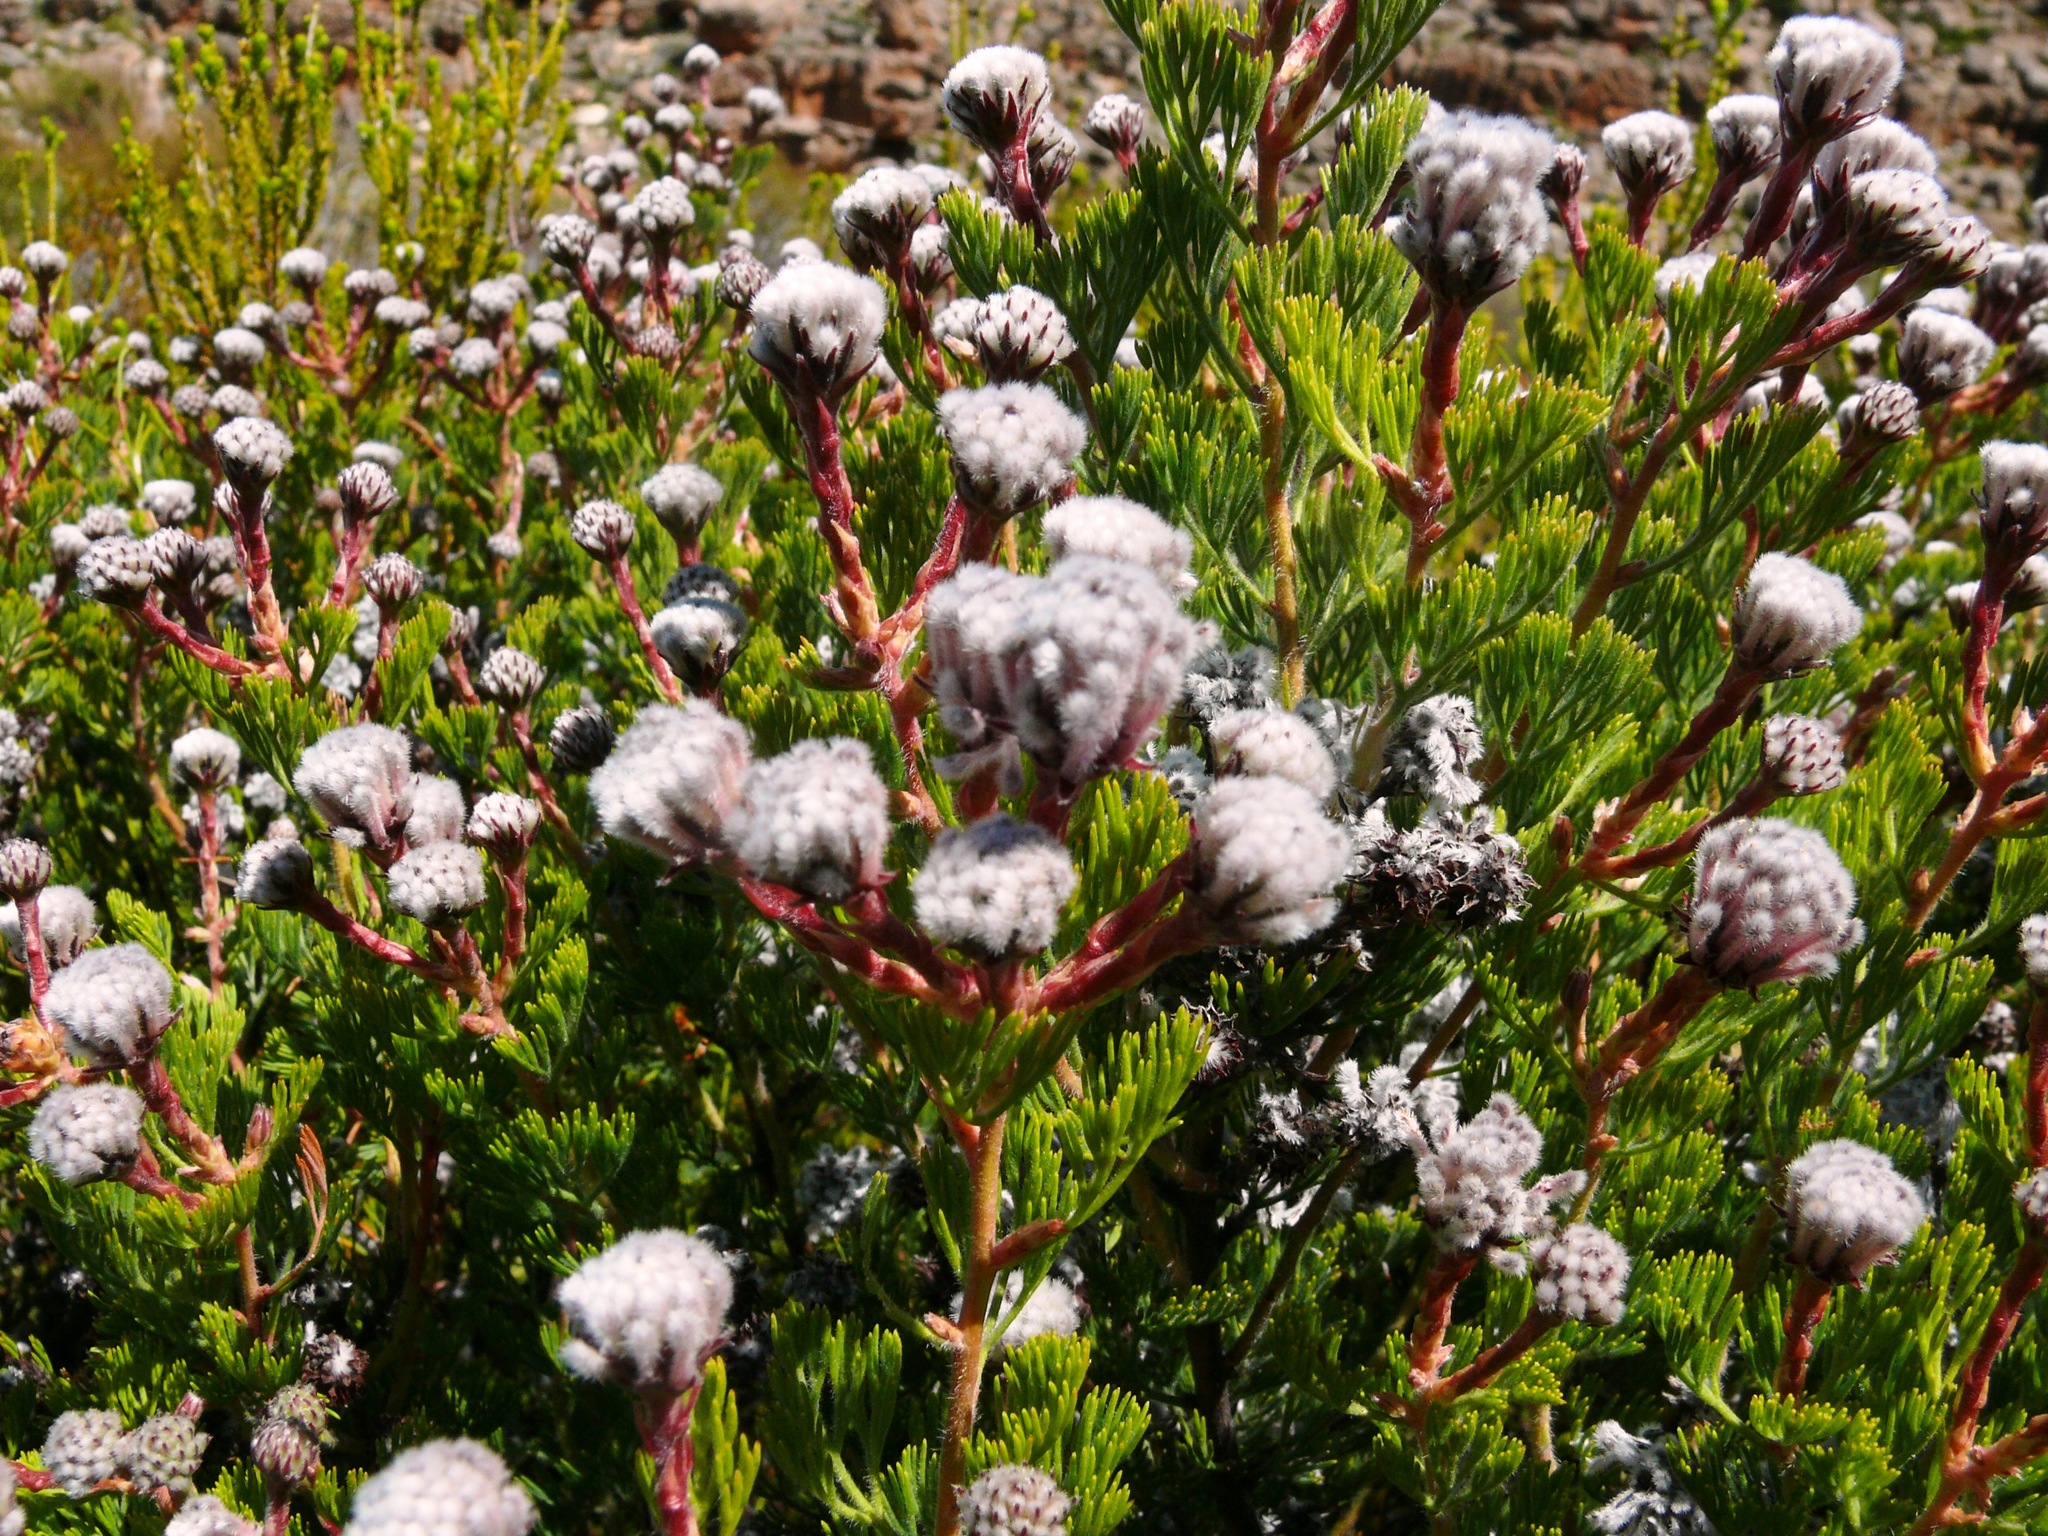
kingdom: Plantae
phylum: Tracheophyta
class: Magnoliopsida
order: Proteales
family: Proteaceae
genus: Serruria
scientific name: Serruria aitonii
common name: Marshmallow spiderhead
